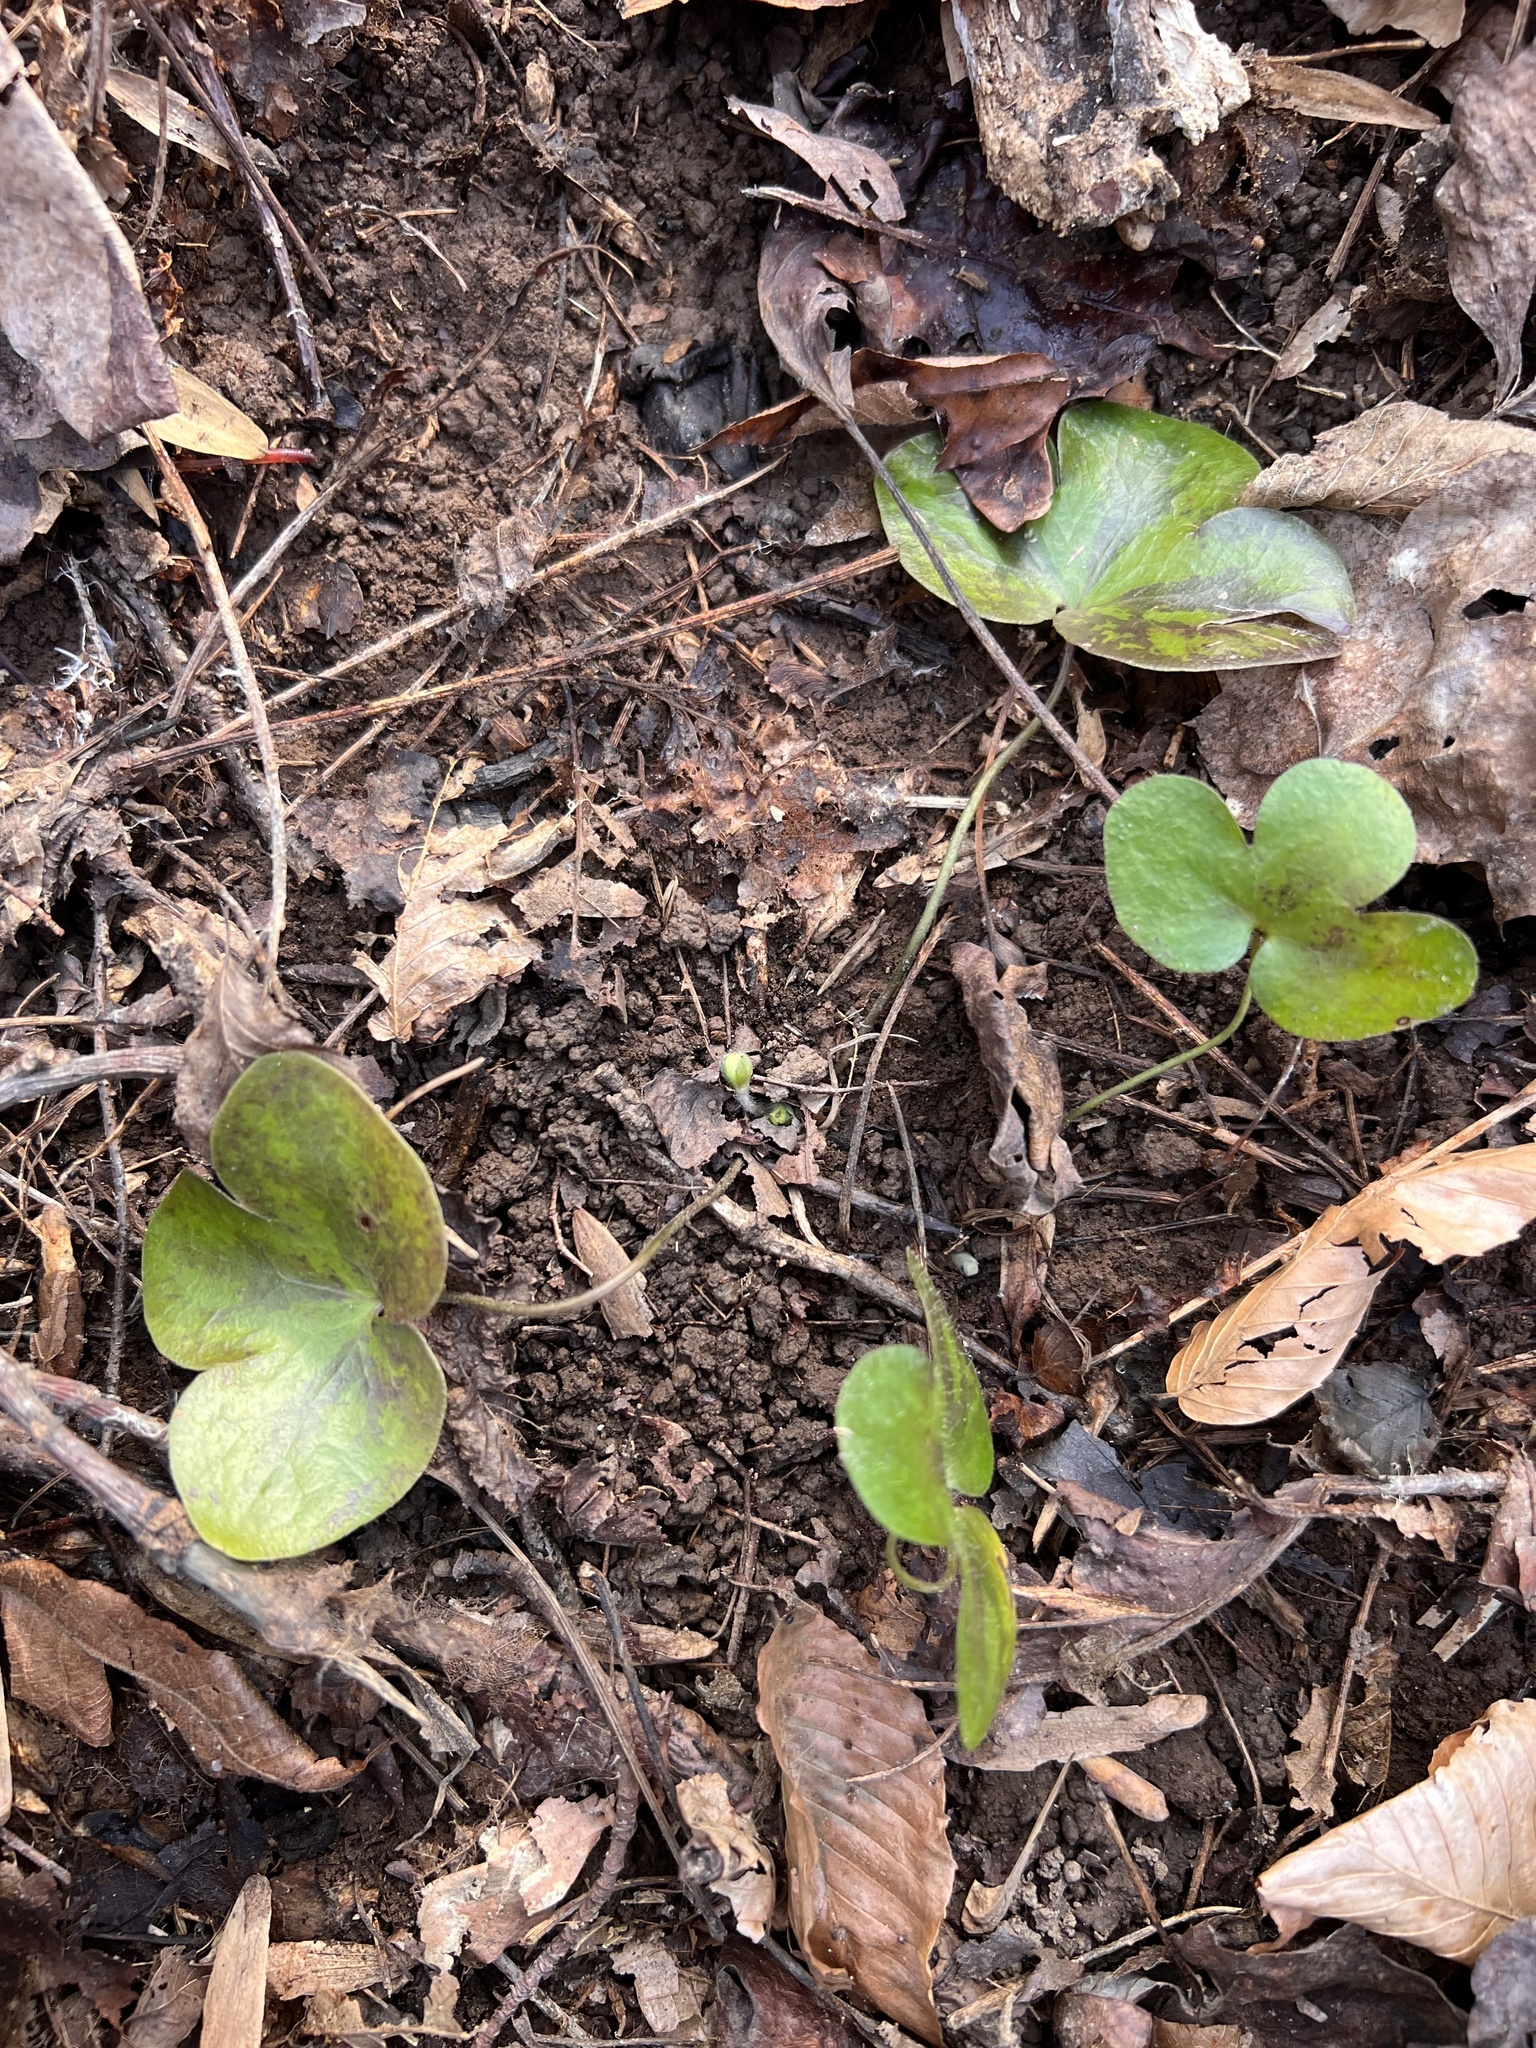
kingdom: Plantae
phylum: Tracheophyta
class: Magnoliopsida
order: Ranunculales
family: Ranunculaceae
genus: Hepatica
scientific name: Hepatica americana
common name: American hepatica
